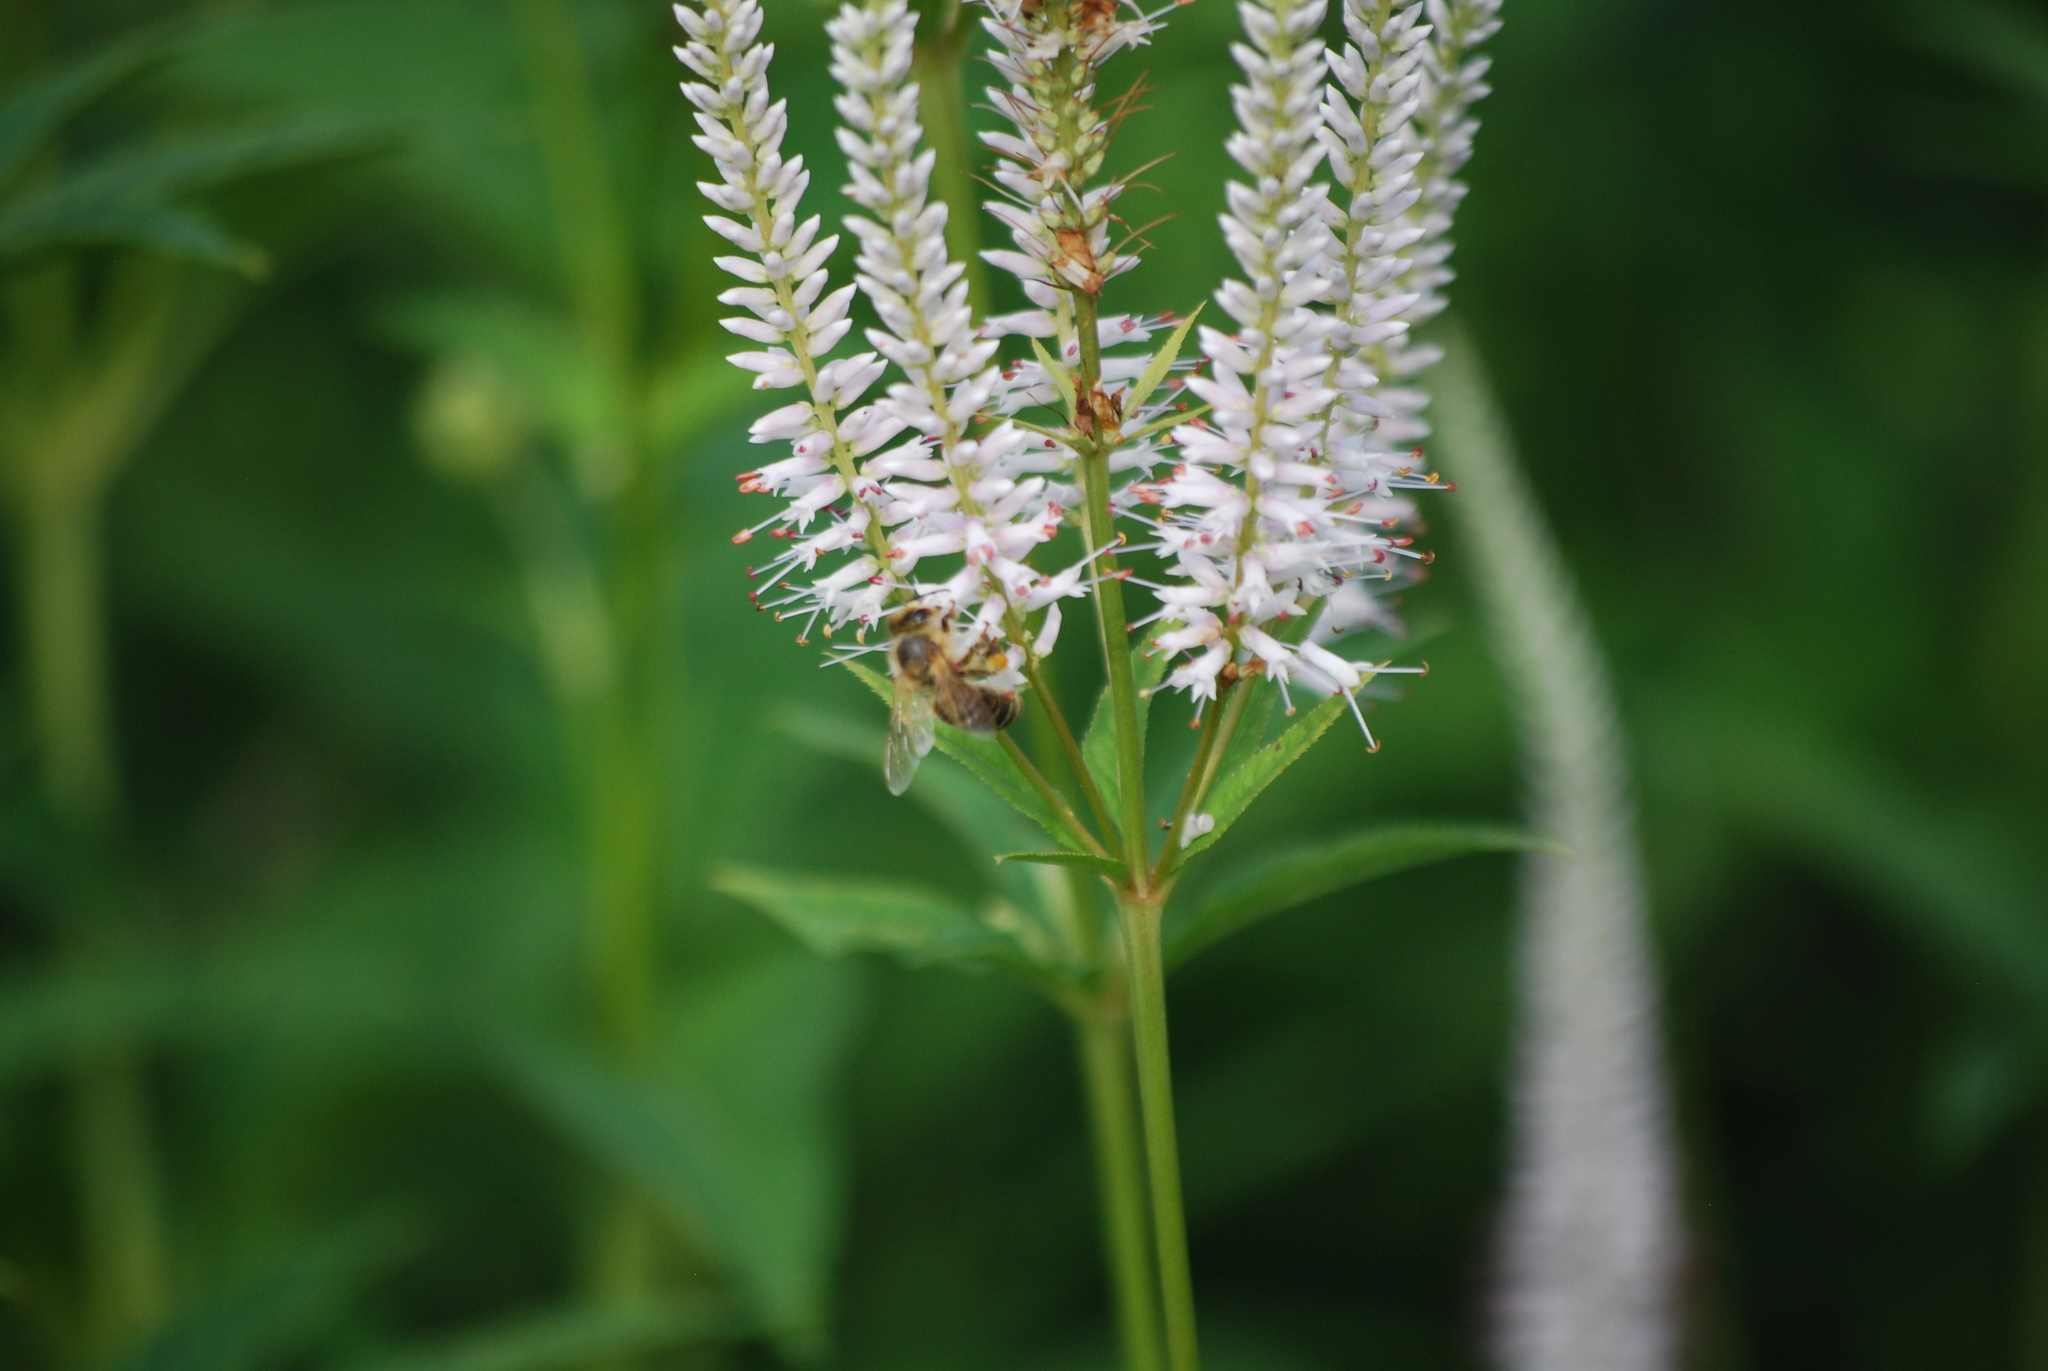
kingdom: Animalia
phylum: Arthropoda
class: Insecta
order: Hymenoptera
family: Apidae
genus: Apis
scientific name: Apis mellifera
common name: Honey bee
